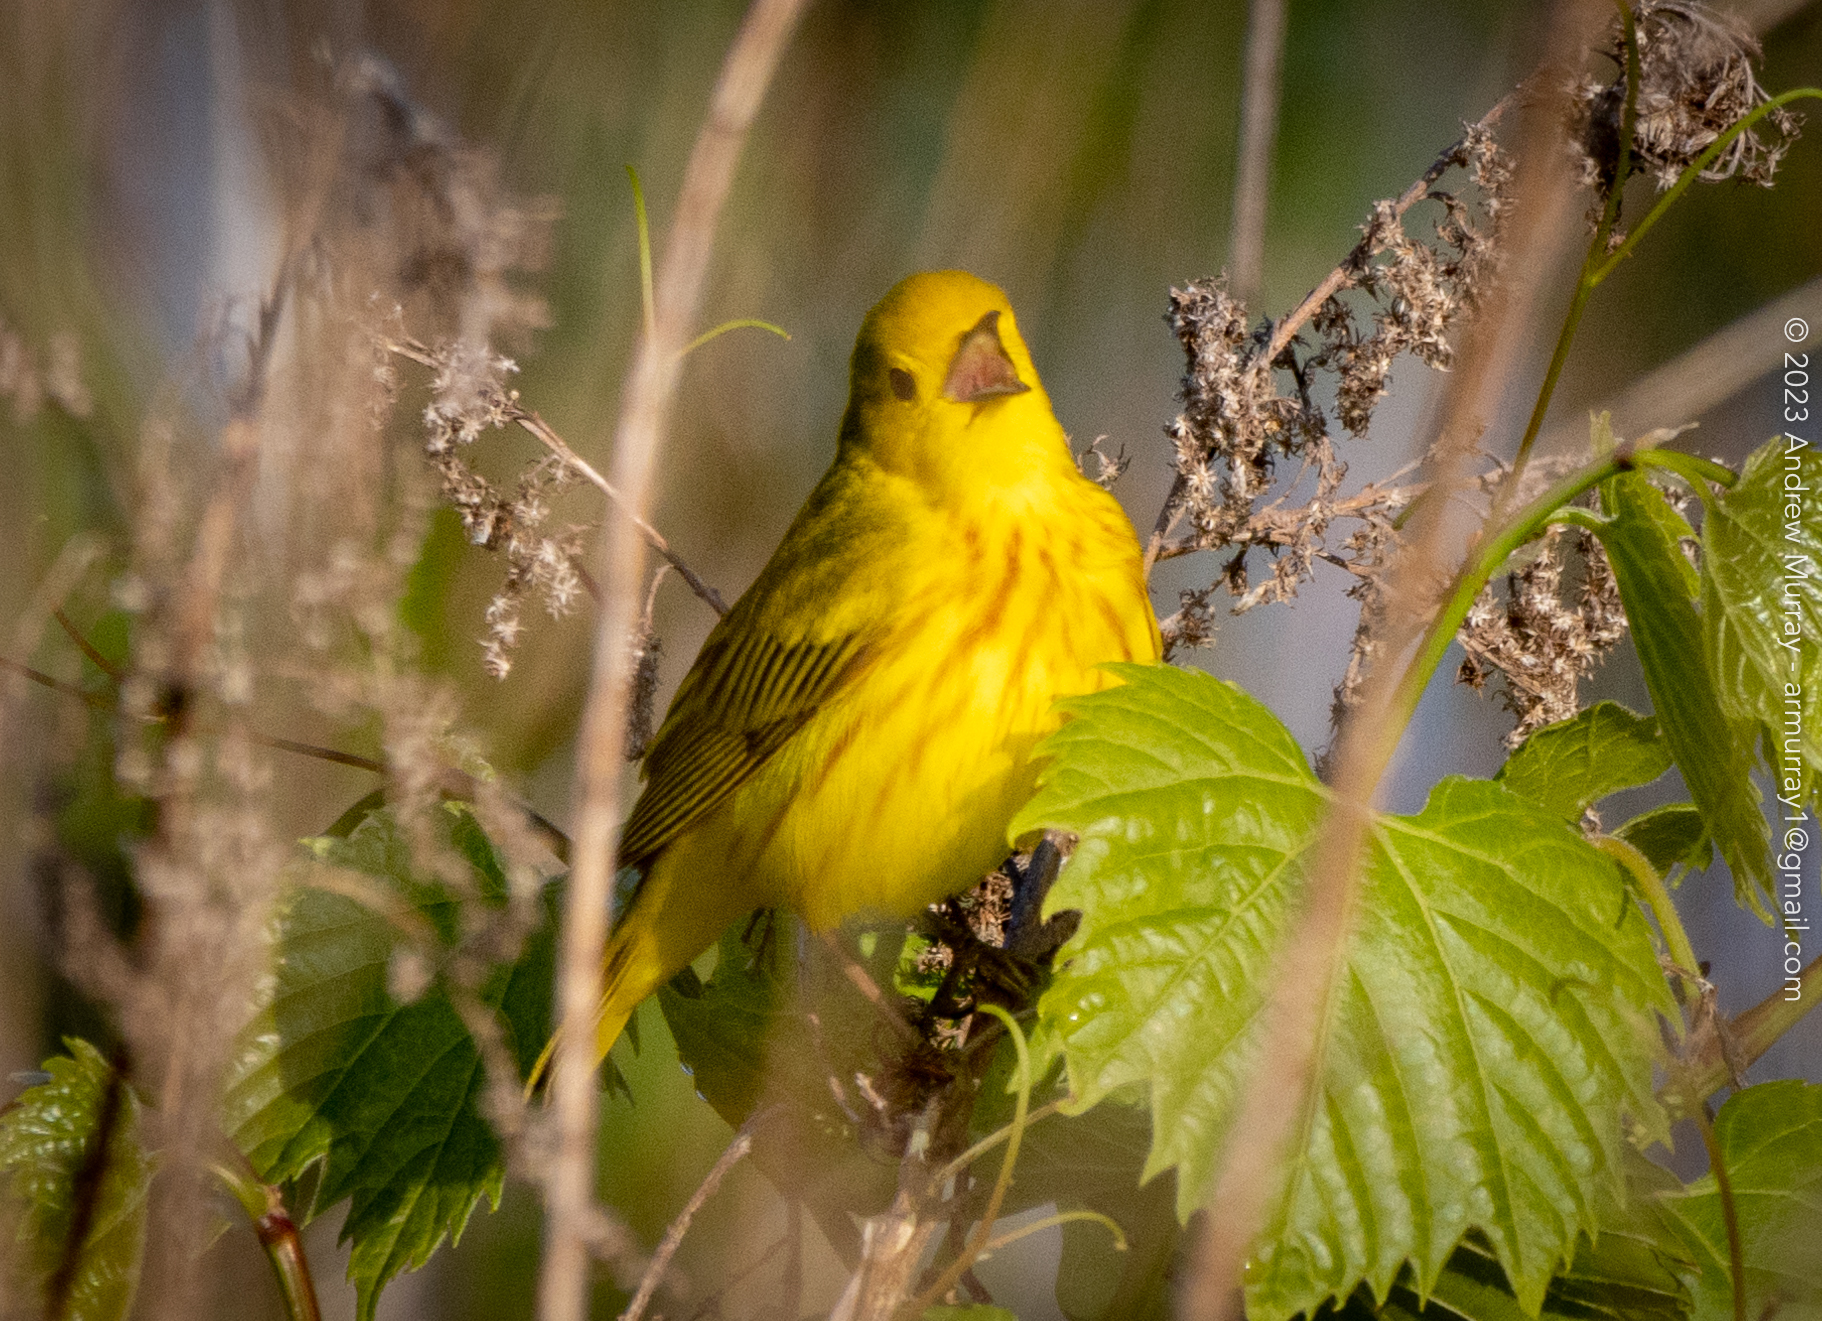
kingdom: Animalia
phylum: Chordata
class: Aves
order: Passeriformes
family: Parulidae
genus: Setophaga
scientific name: Setophaga petechia
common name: Yellow warbler
